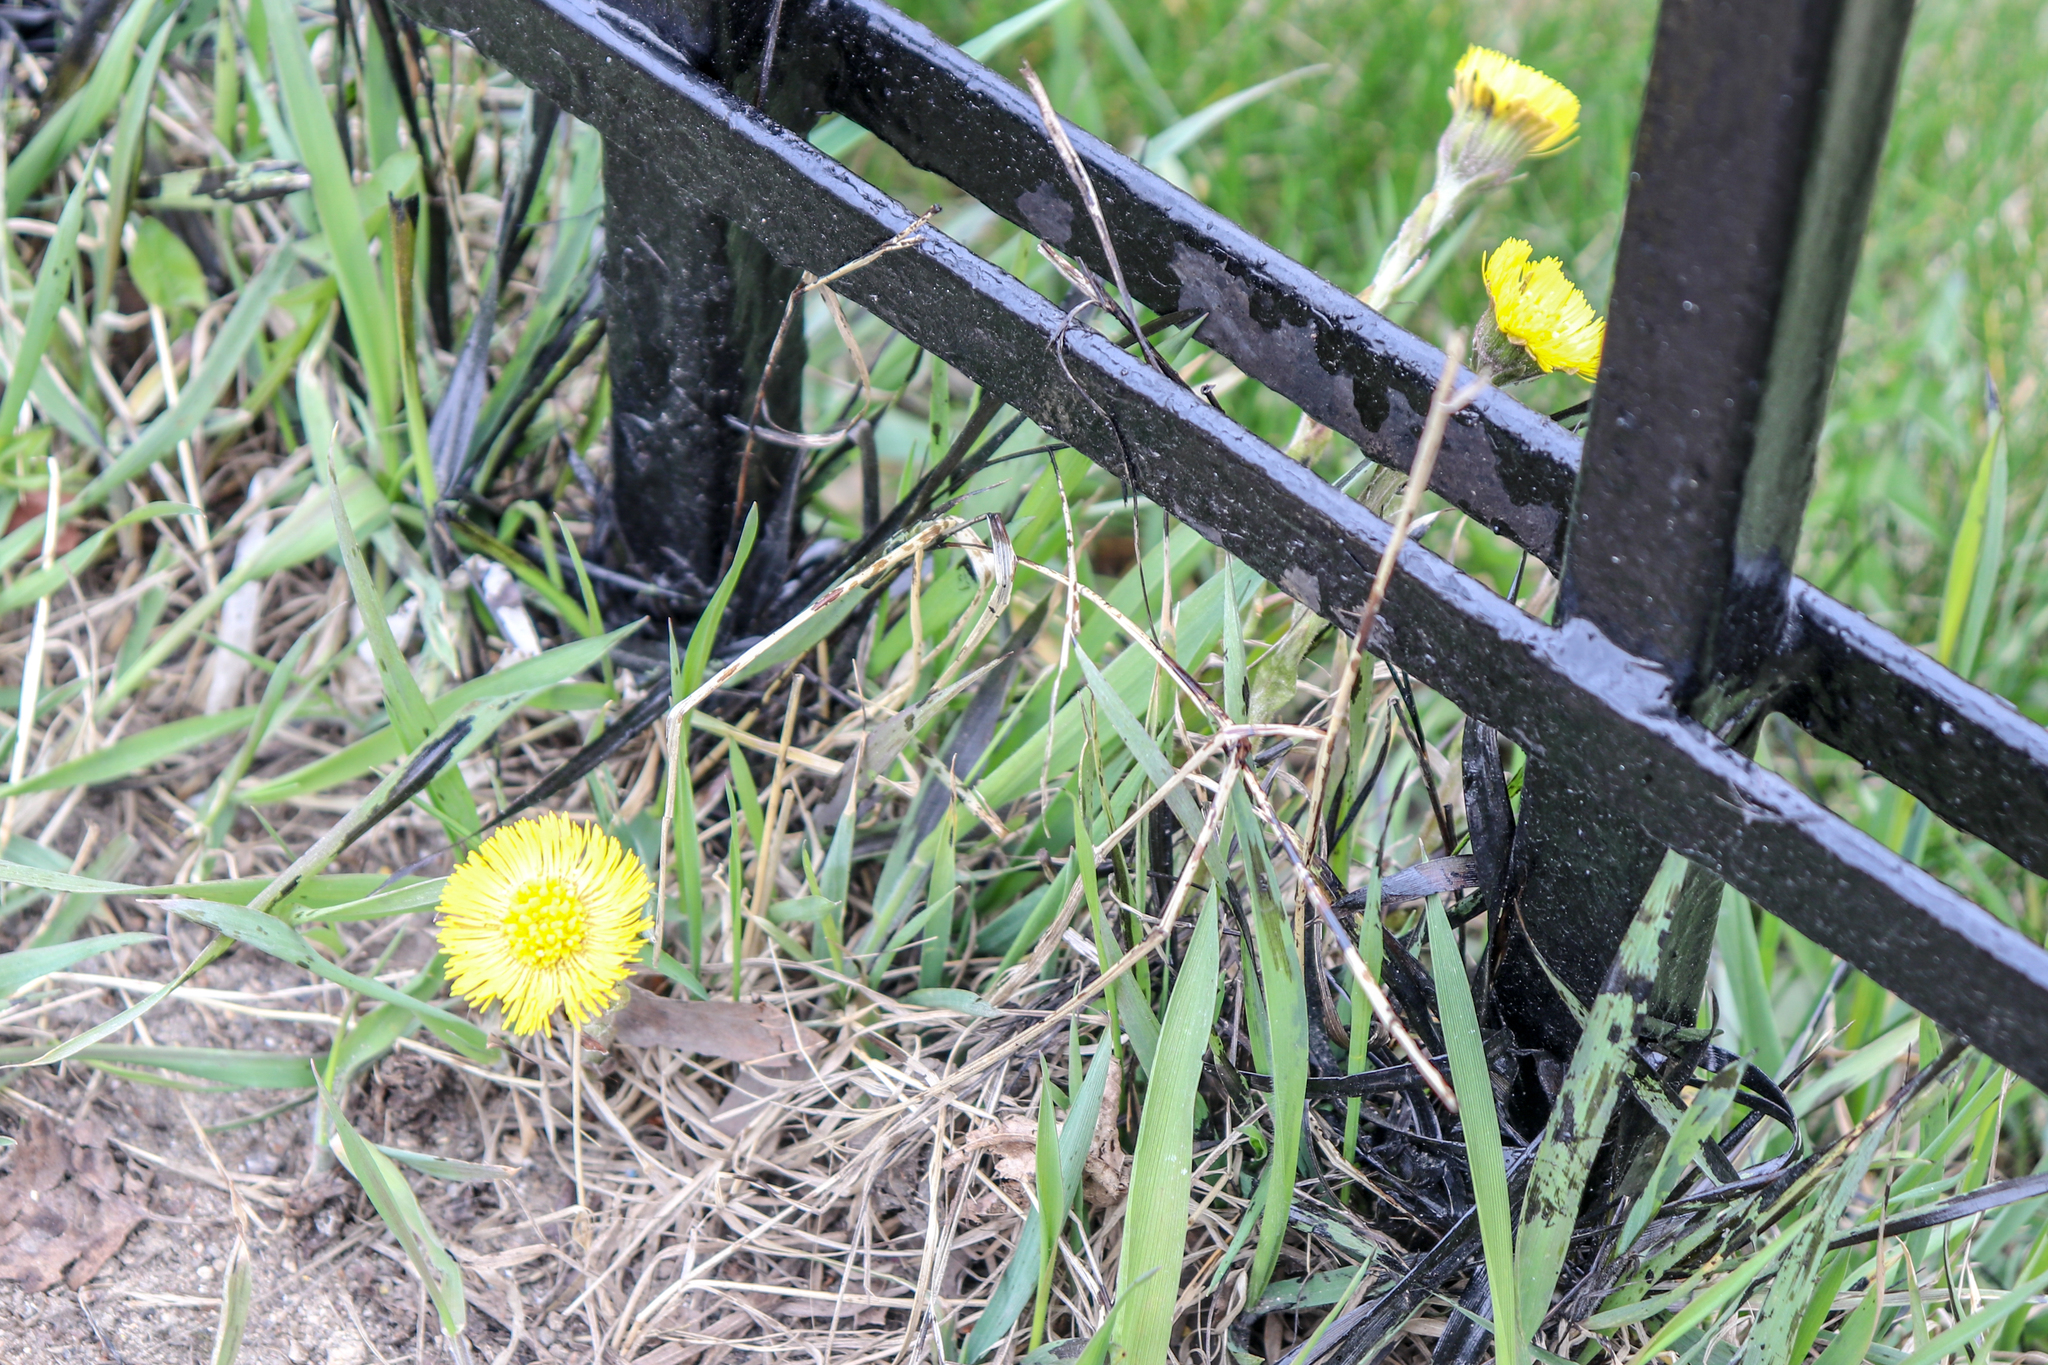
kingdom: Plantae
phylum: Tracheophyta
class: Magnoliopsida
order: Asterales
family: Asteraceae
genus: Tussilago
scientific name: Tussilago farfara
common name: Coltsfoot
